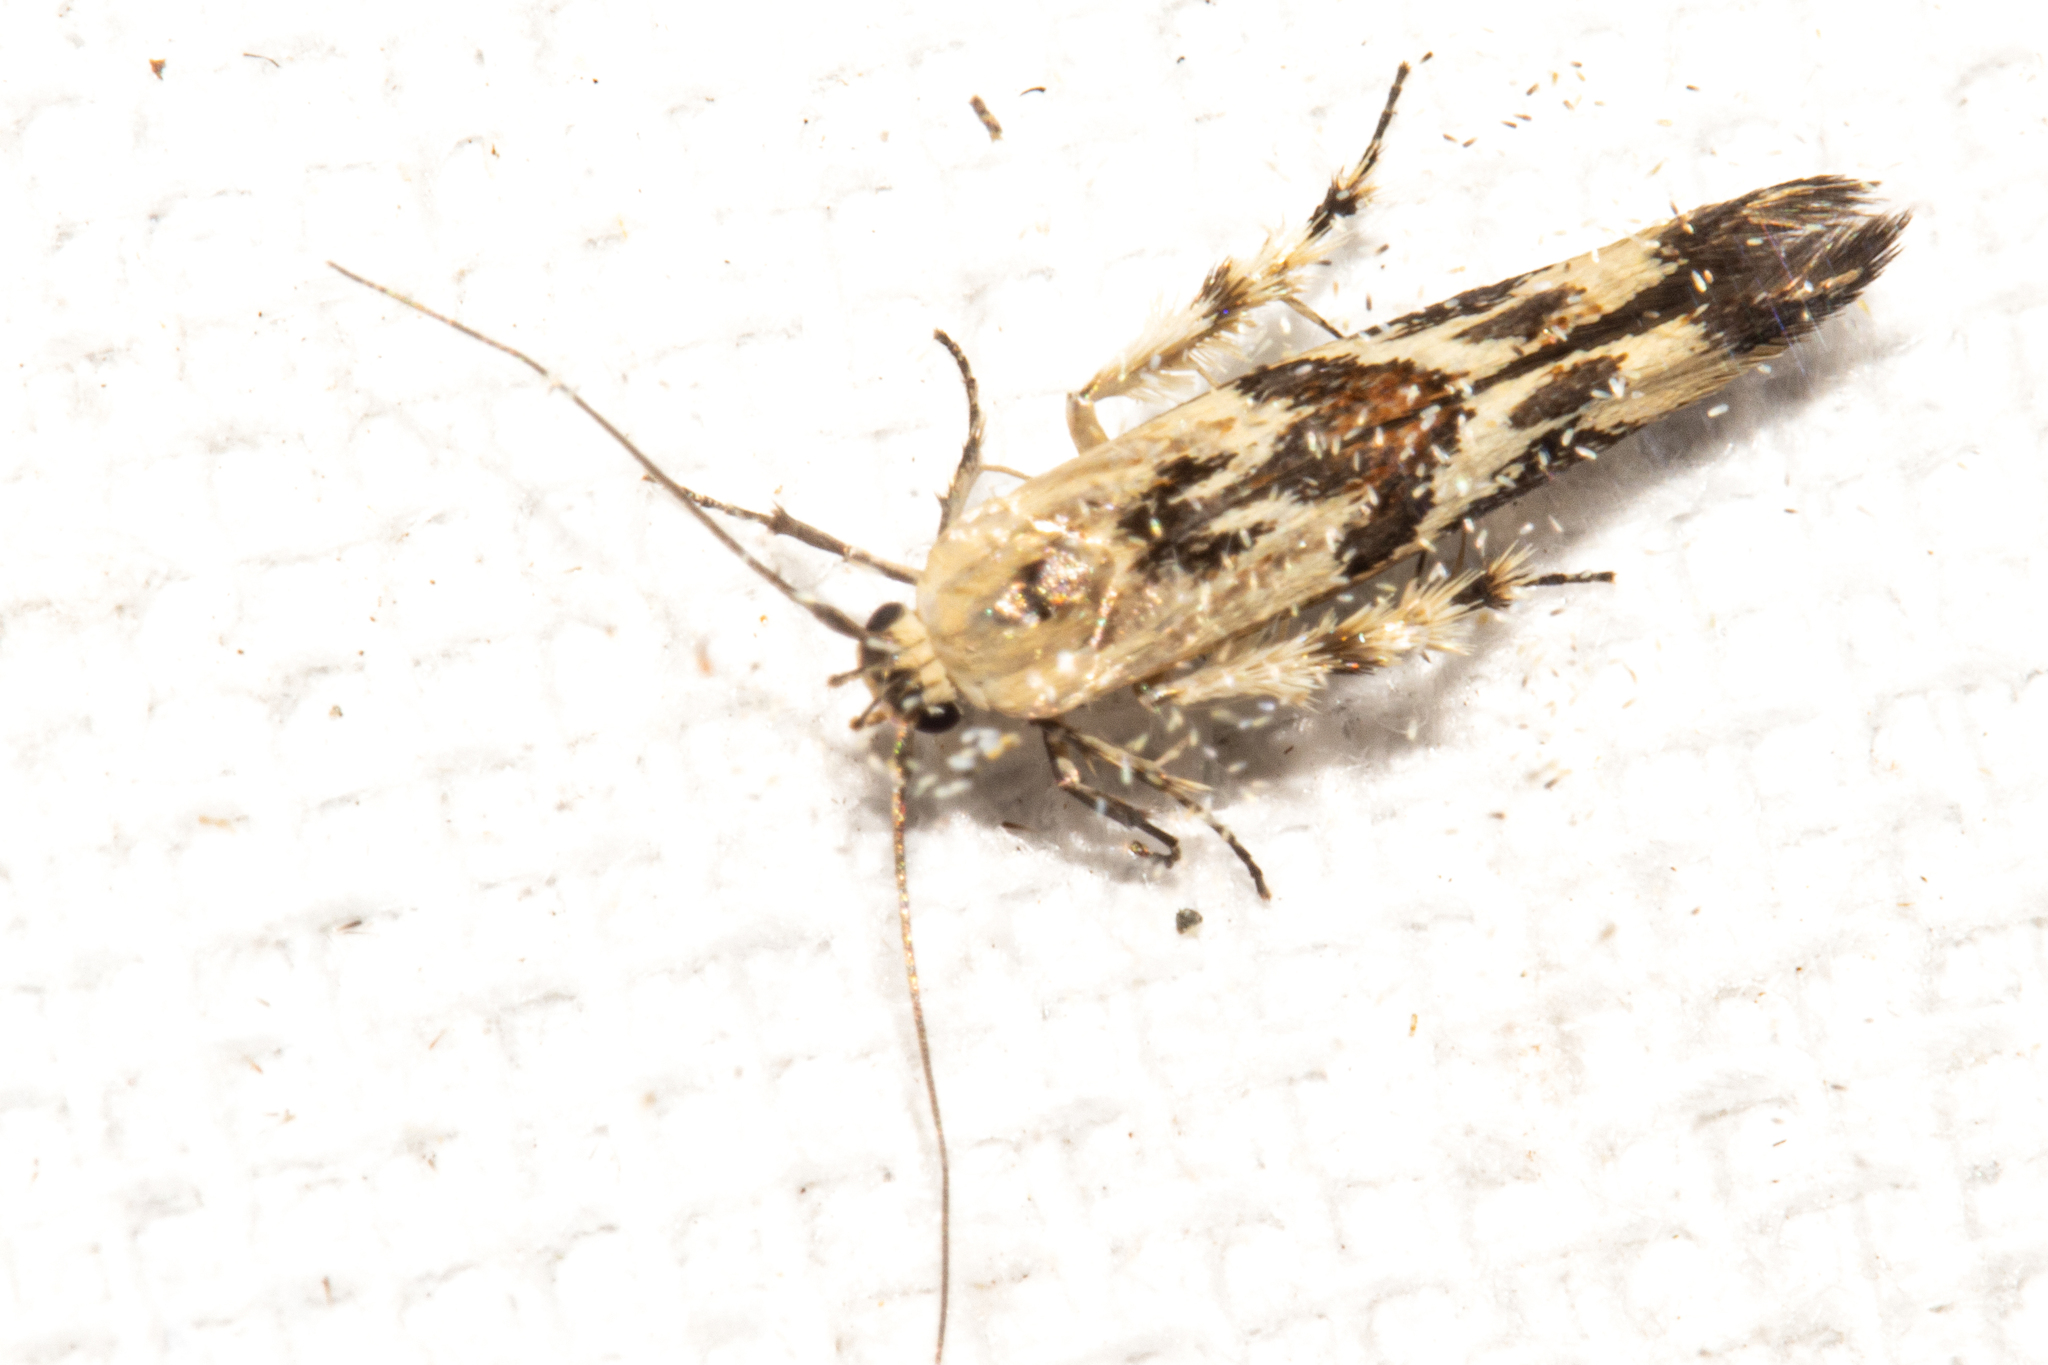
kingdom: Animalia
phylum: Arthropoda
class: Insecta
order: Lepidoptera
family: Stathmopodidae
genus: Stathmopoda
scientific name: Stathmopoda melanochra
